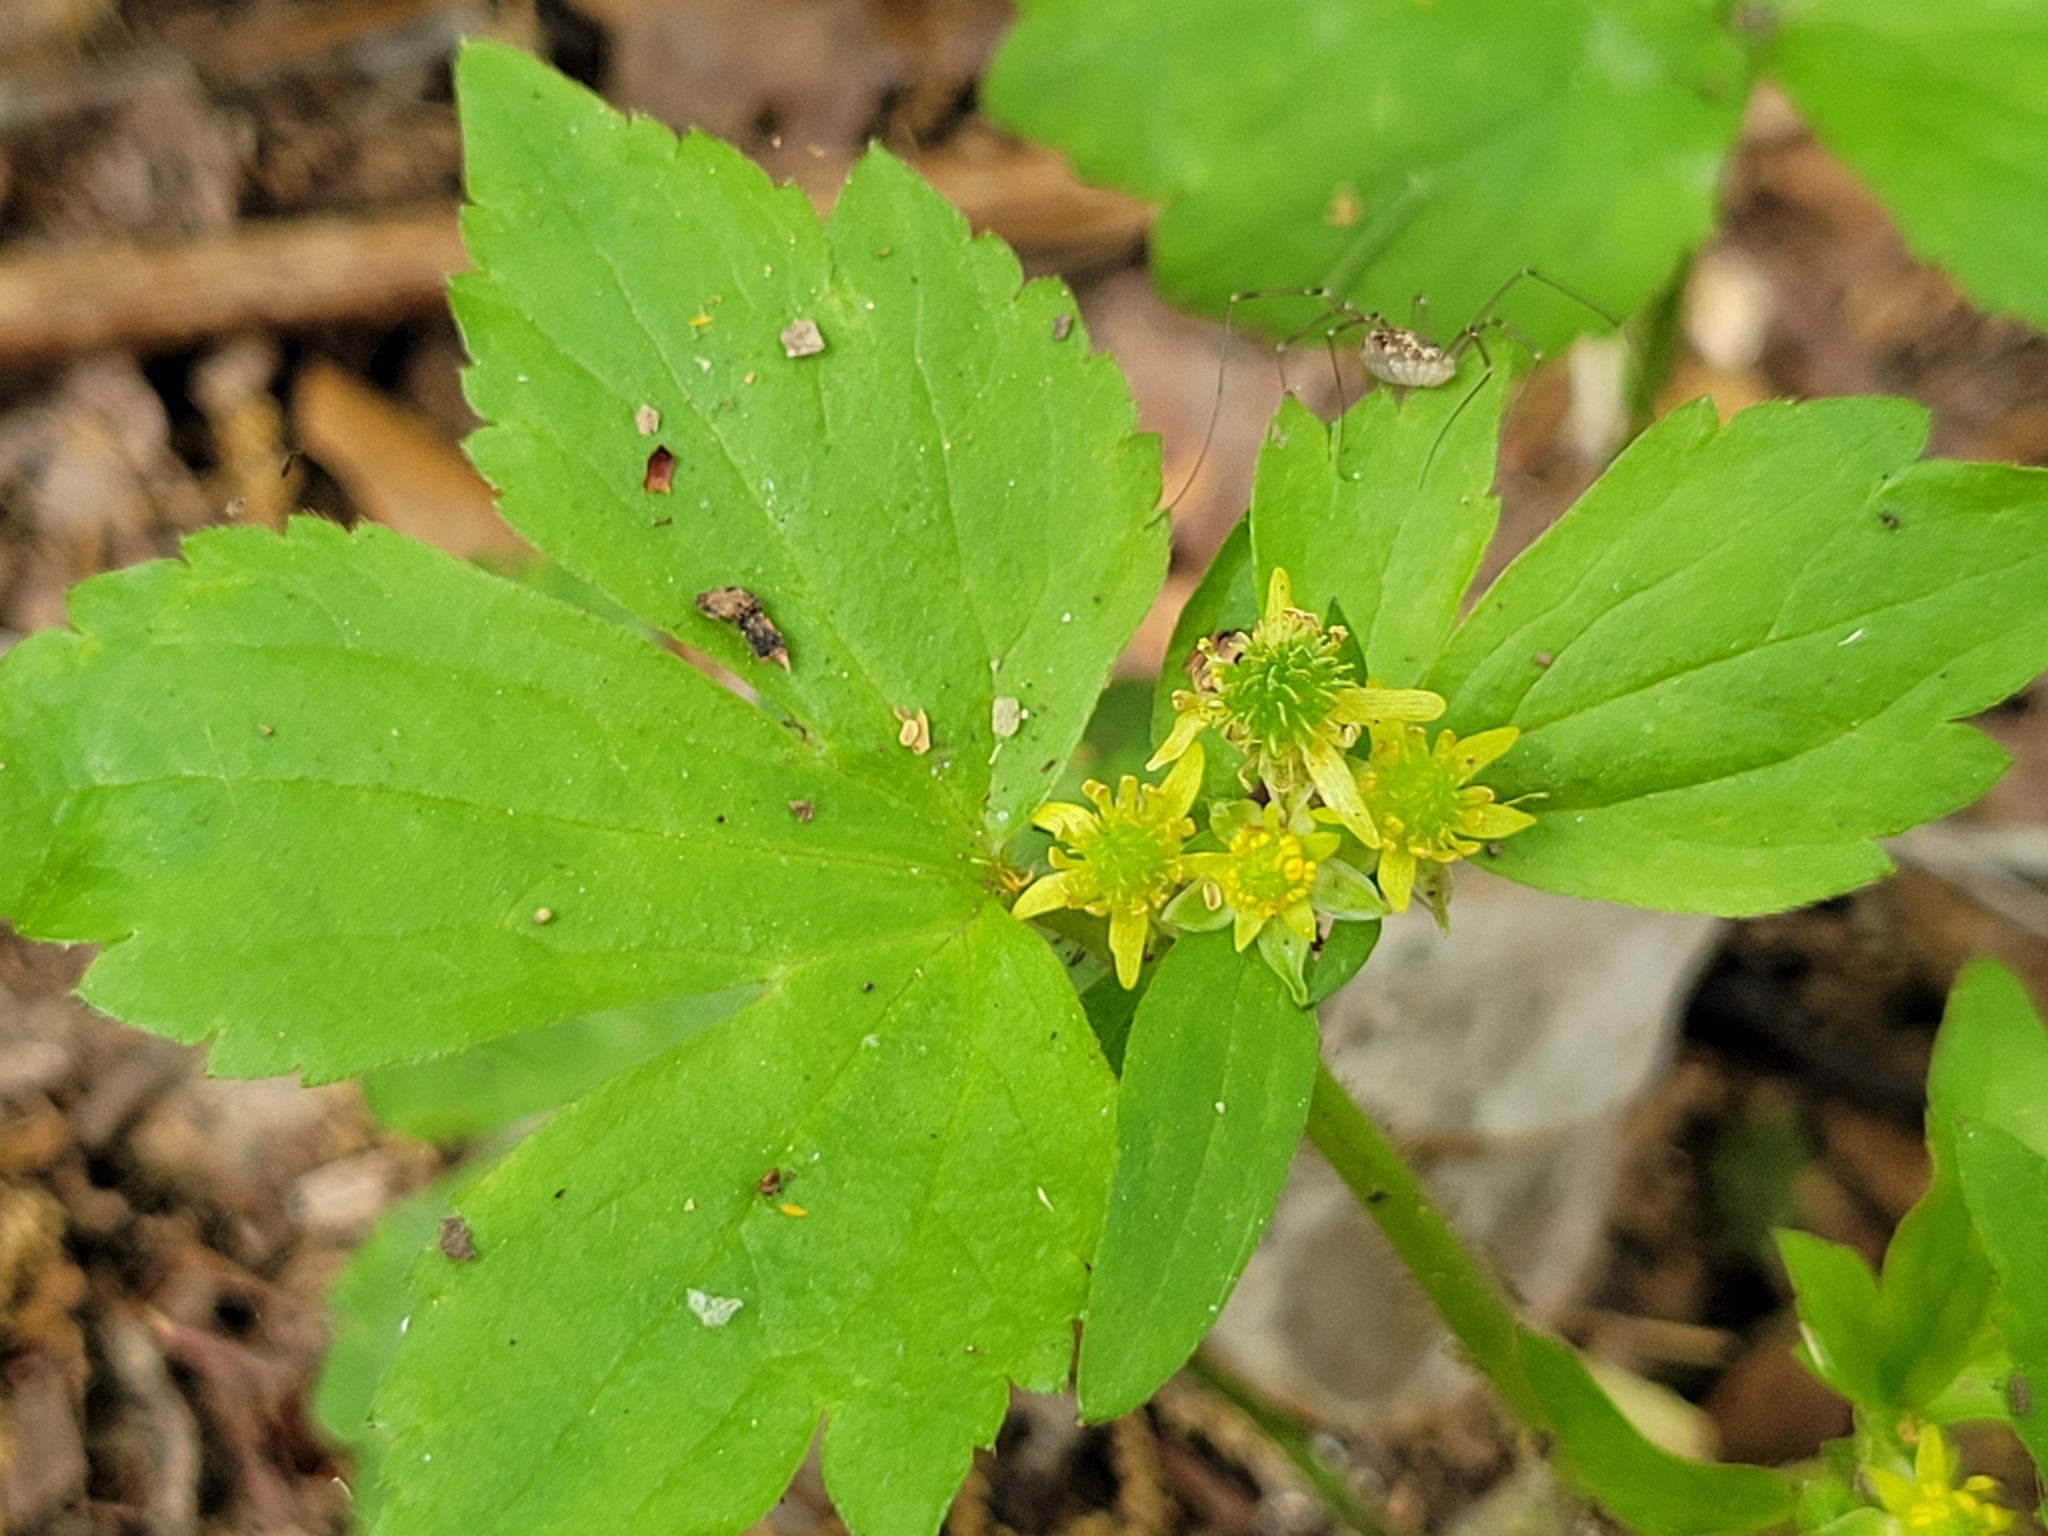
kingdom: Plantae
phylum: Tracheophyta
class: Magnoliopsida
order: Ranunculales
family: Ranunculaceae
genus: Ranunculus
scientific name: Ranunculus recurvatus
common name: Blisterwort
